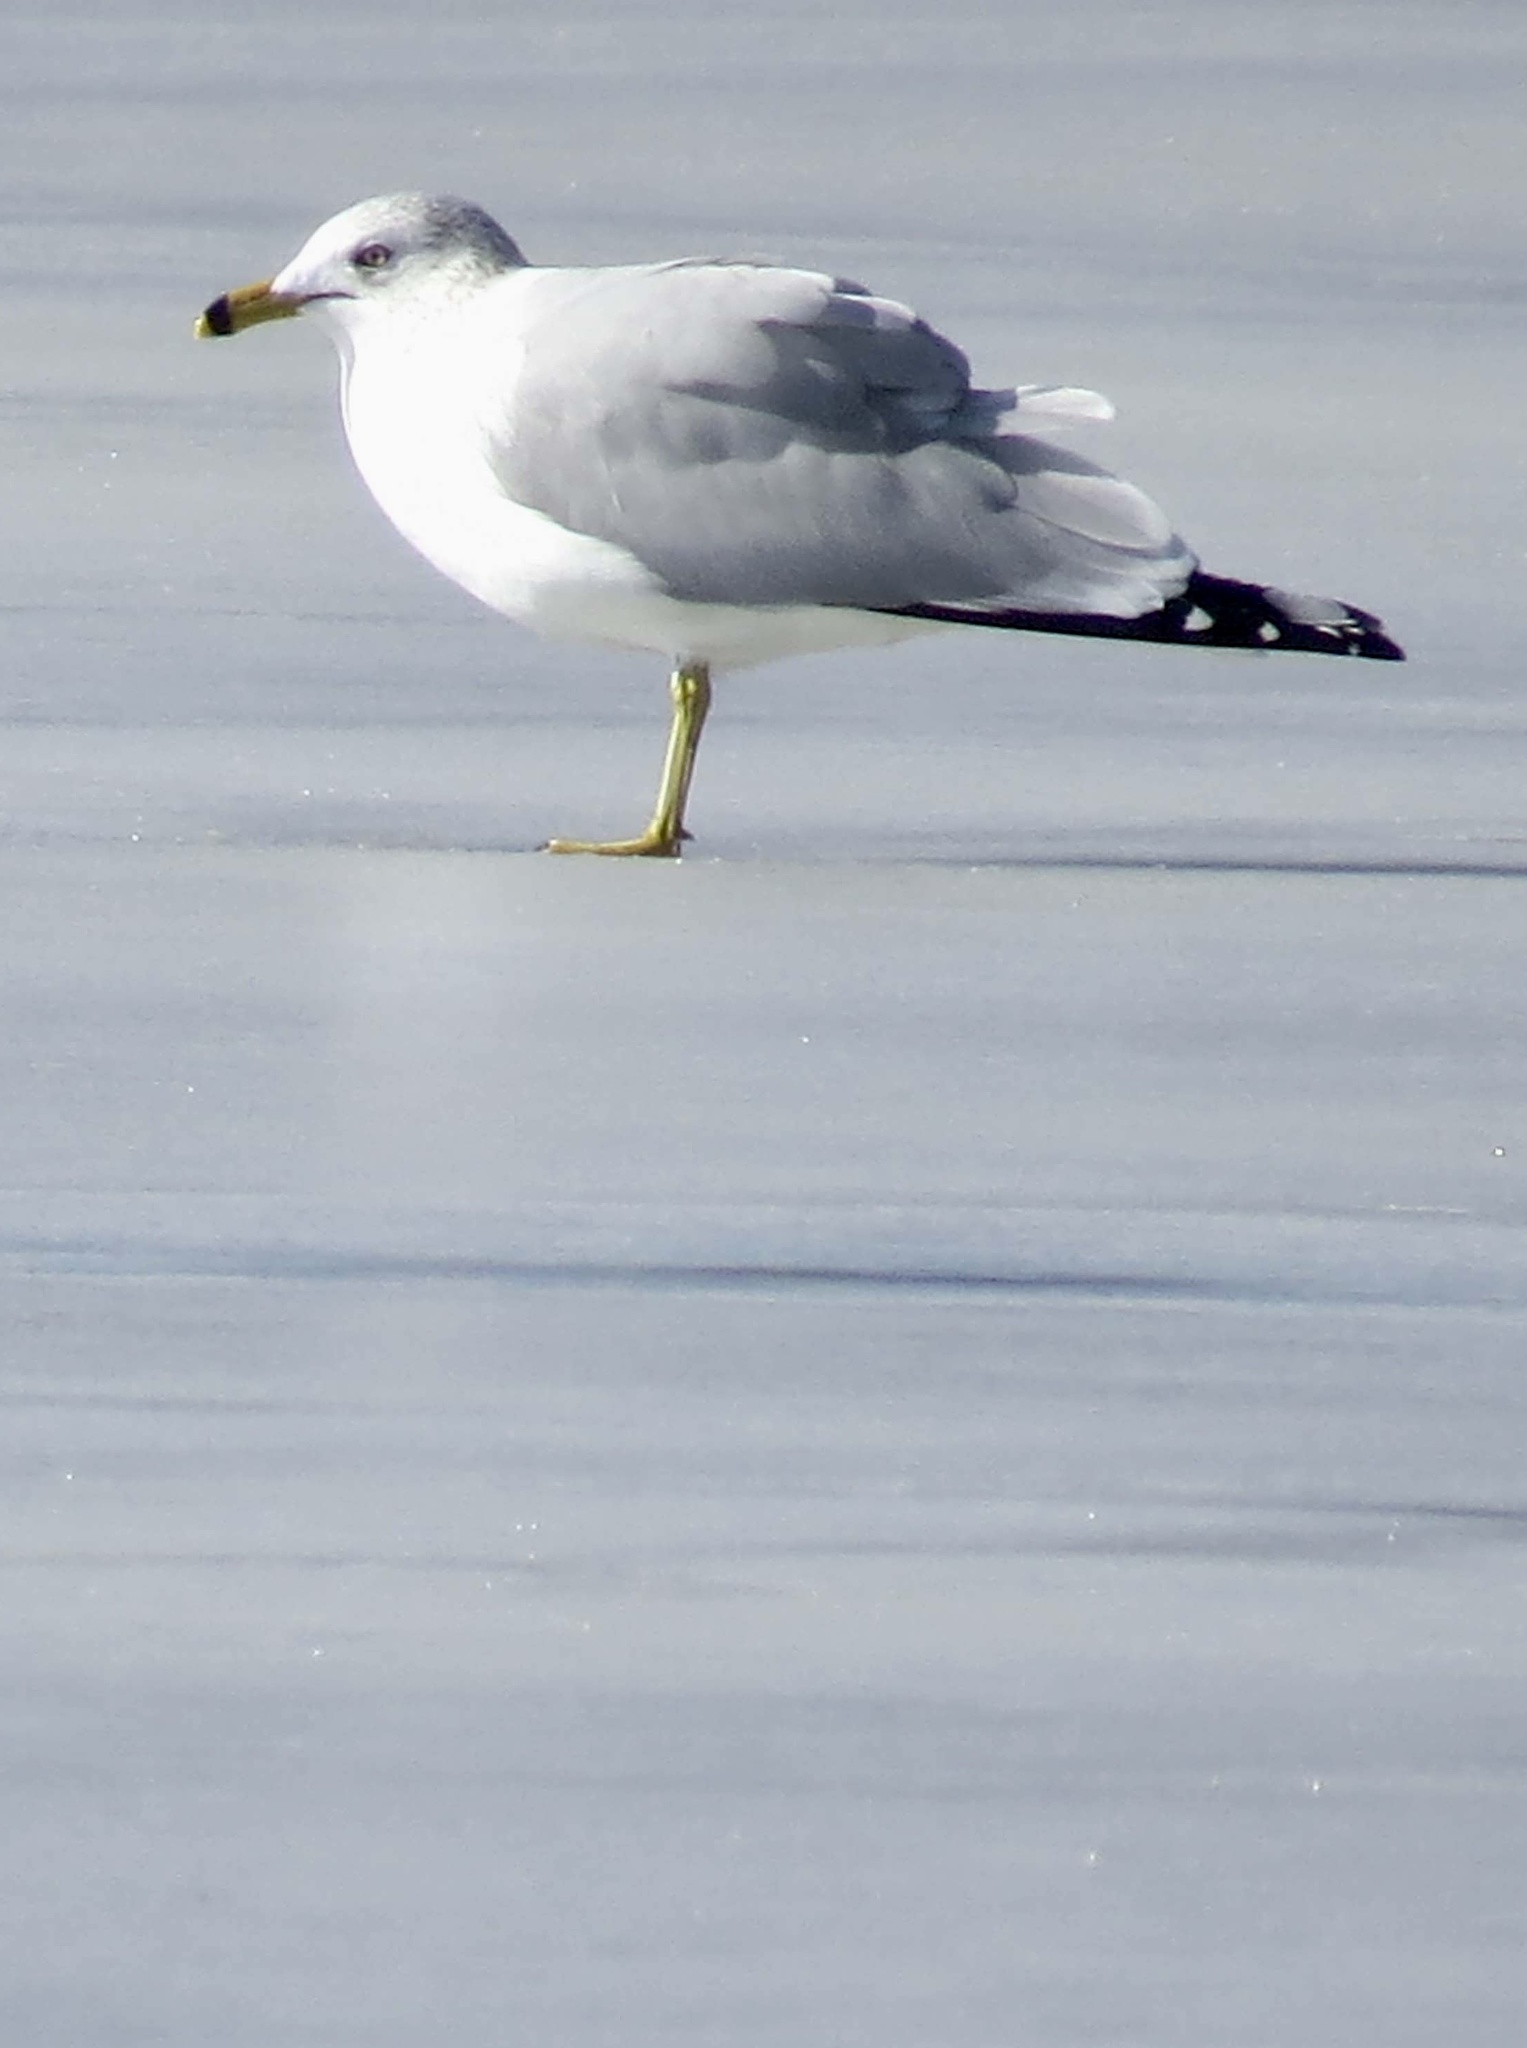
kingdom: Animalia
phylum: Chordata
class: Aves
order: Charadriiformes
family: Laridae
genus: Larus
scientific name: Larus delawarensis
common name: Ring-billed gull
